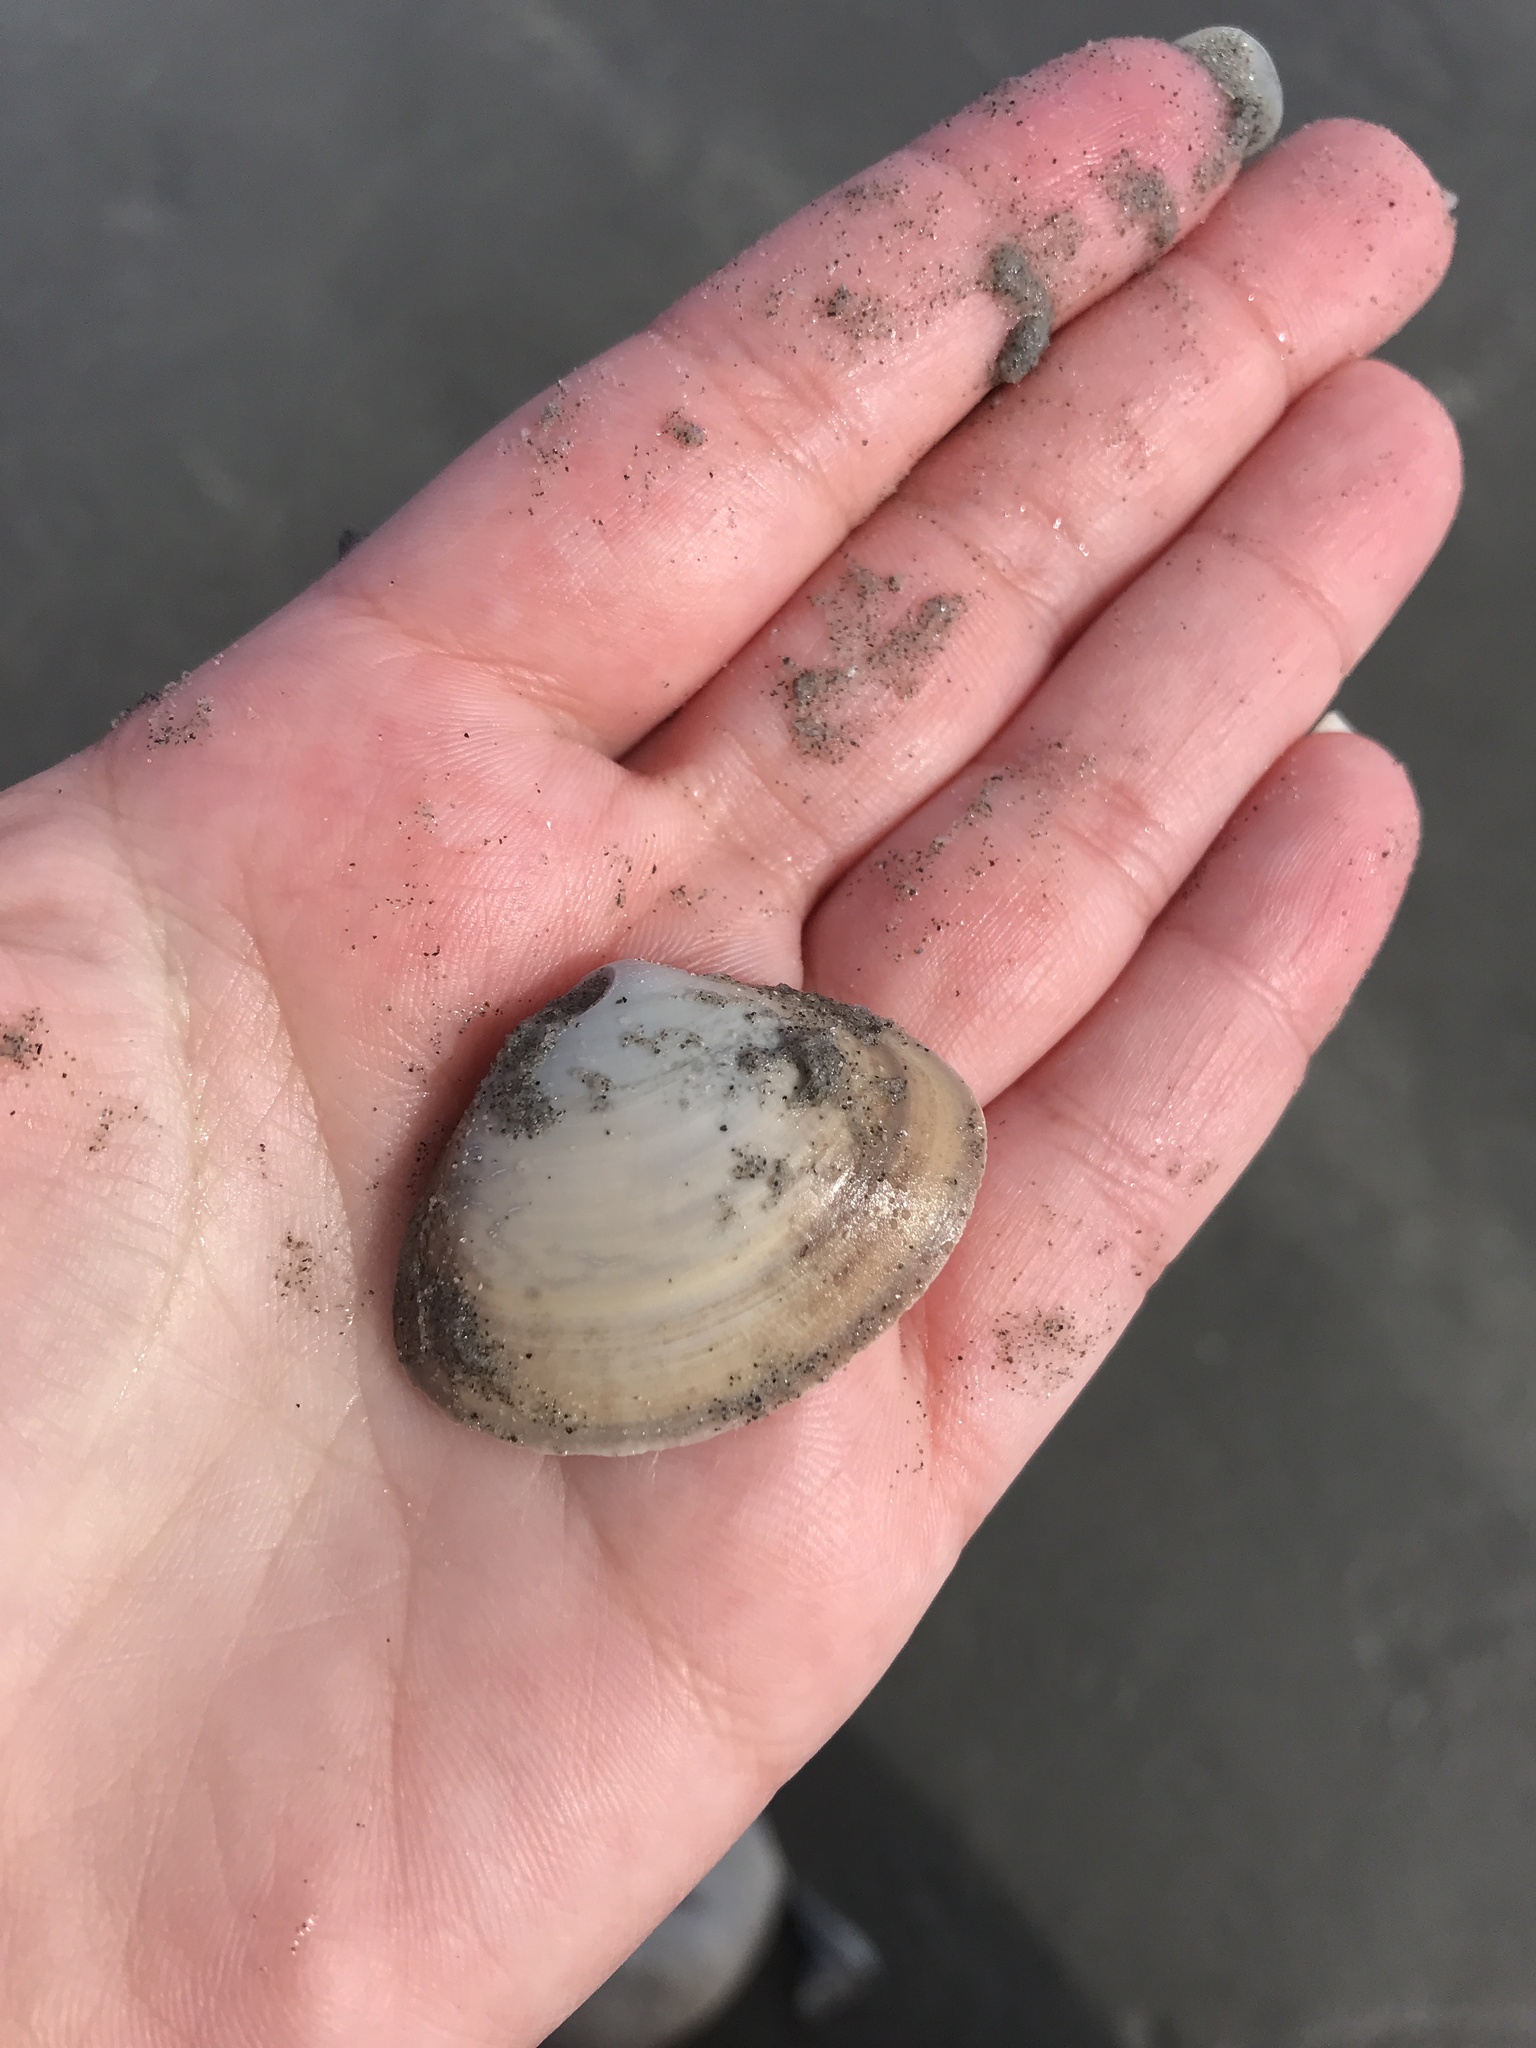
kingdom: Animalia
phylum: Mollusca
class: Bivalvia
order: Venerida
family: Mactridae
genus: Spisula
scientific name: Spisula solidissima
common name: Atlantic surf clam
